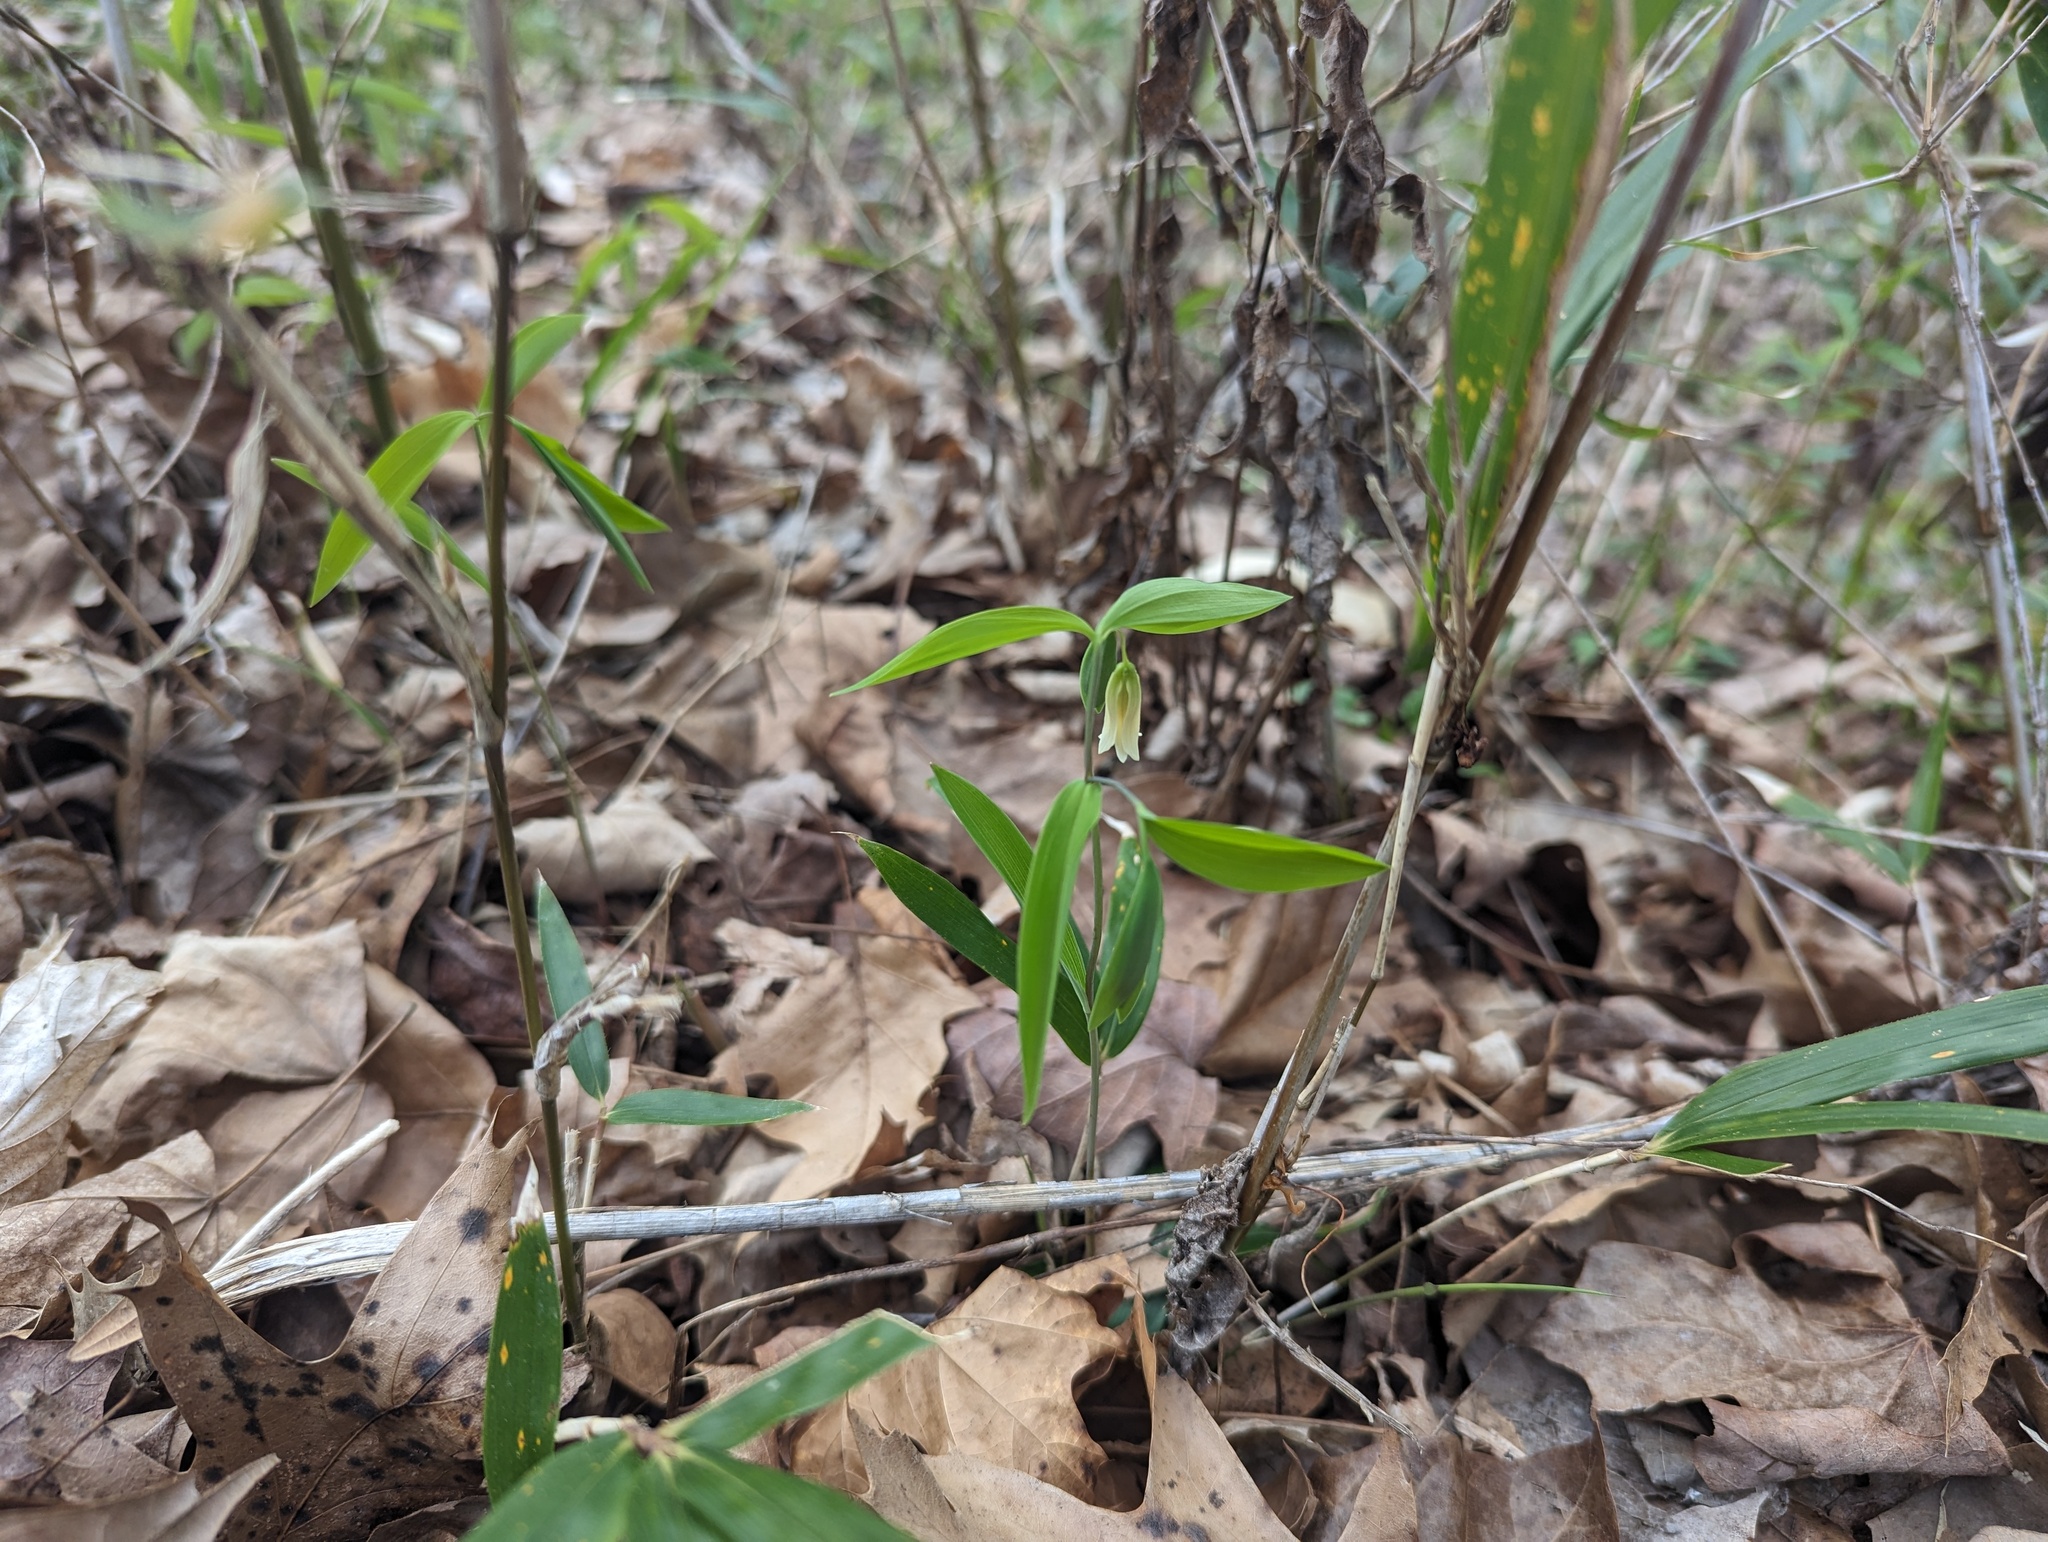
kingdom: Plantae
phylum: Tracheophyta
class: Liliopsida
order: Liliales
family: Colchicaceae
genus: Uvularia
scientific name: Uvularia sessilifolia
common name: Straw-lily
